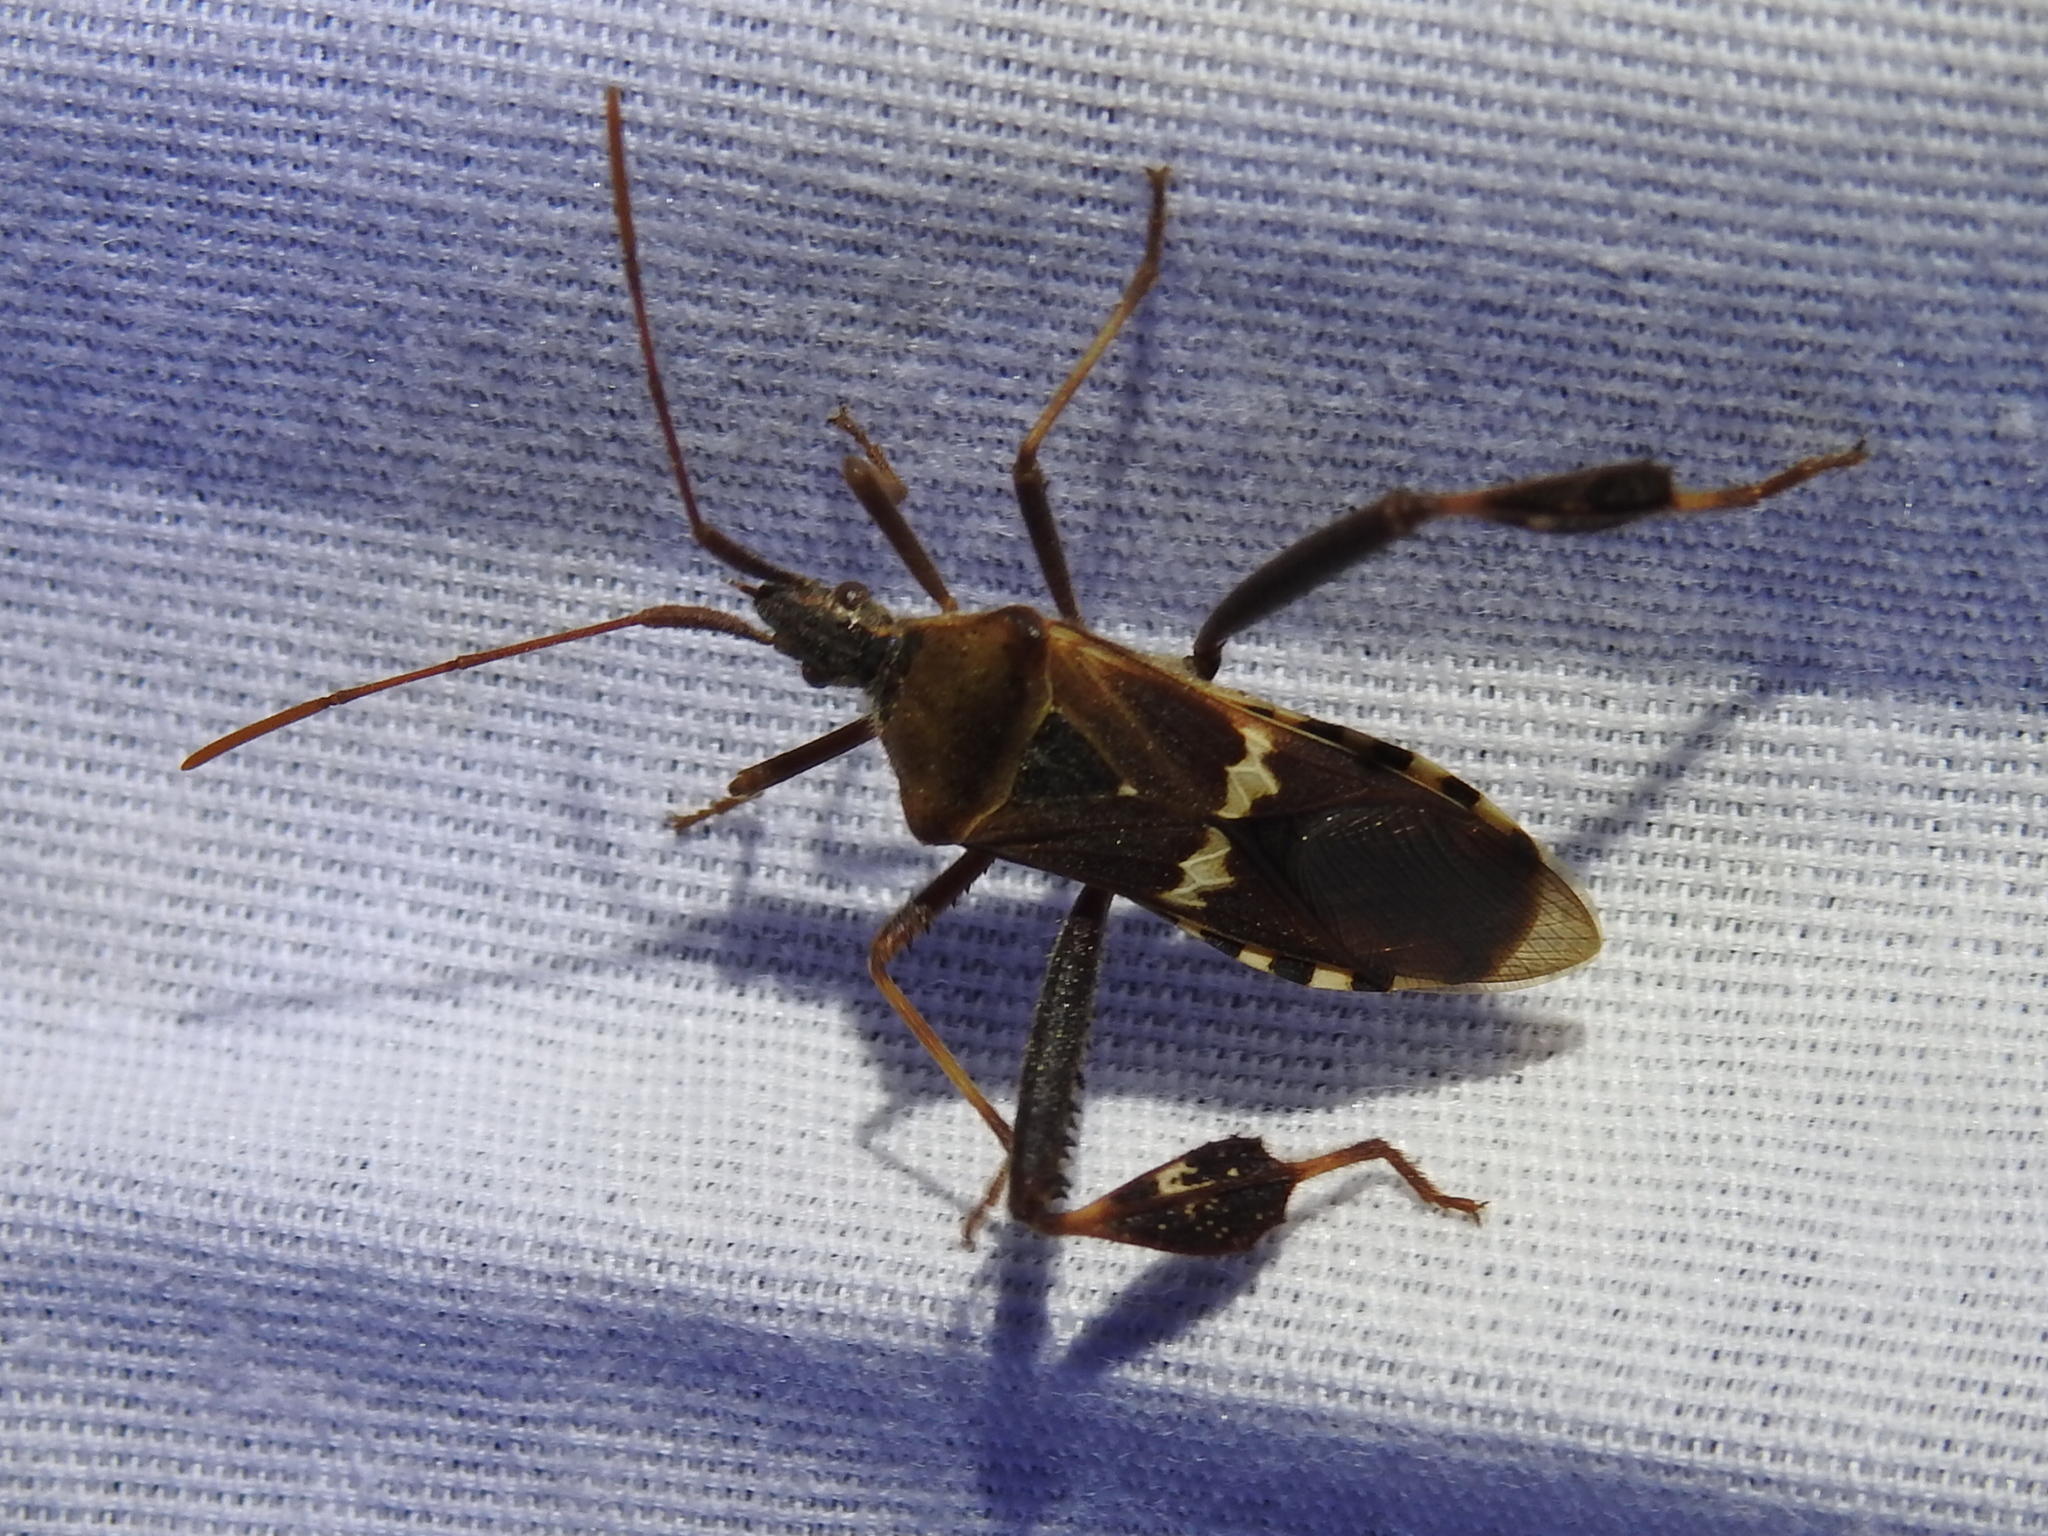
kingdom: Animalia
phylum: Arthropoda
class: Insecta
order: Hemiptera
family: Coreidae
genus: Leptoglossus
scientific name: Leptoglossus clypealis
